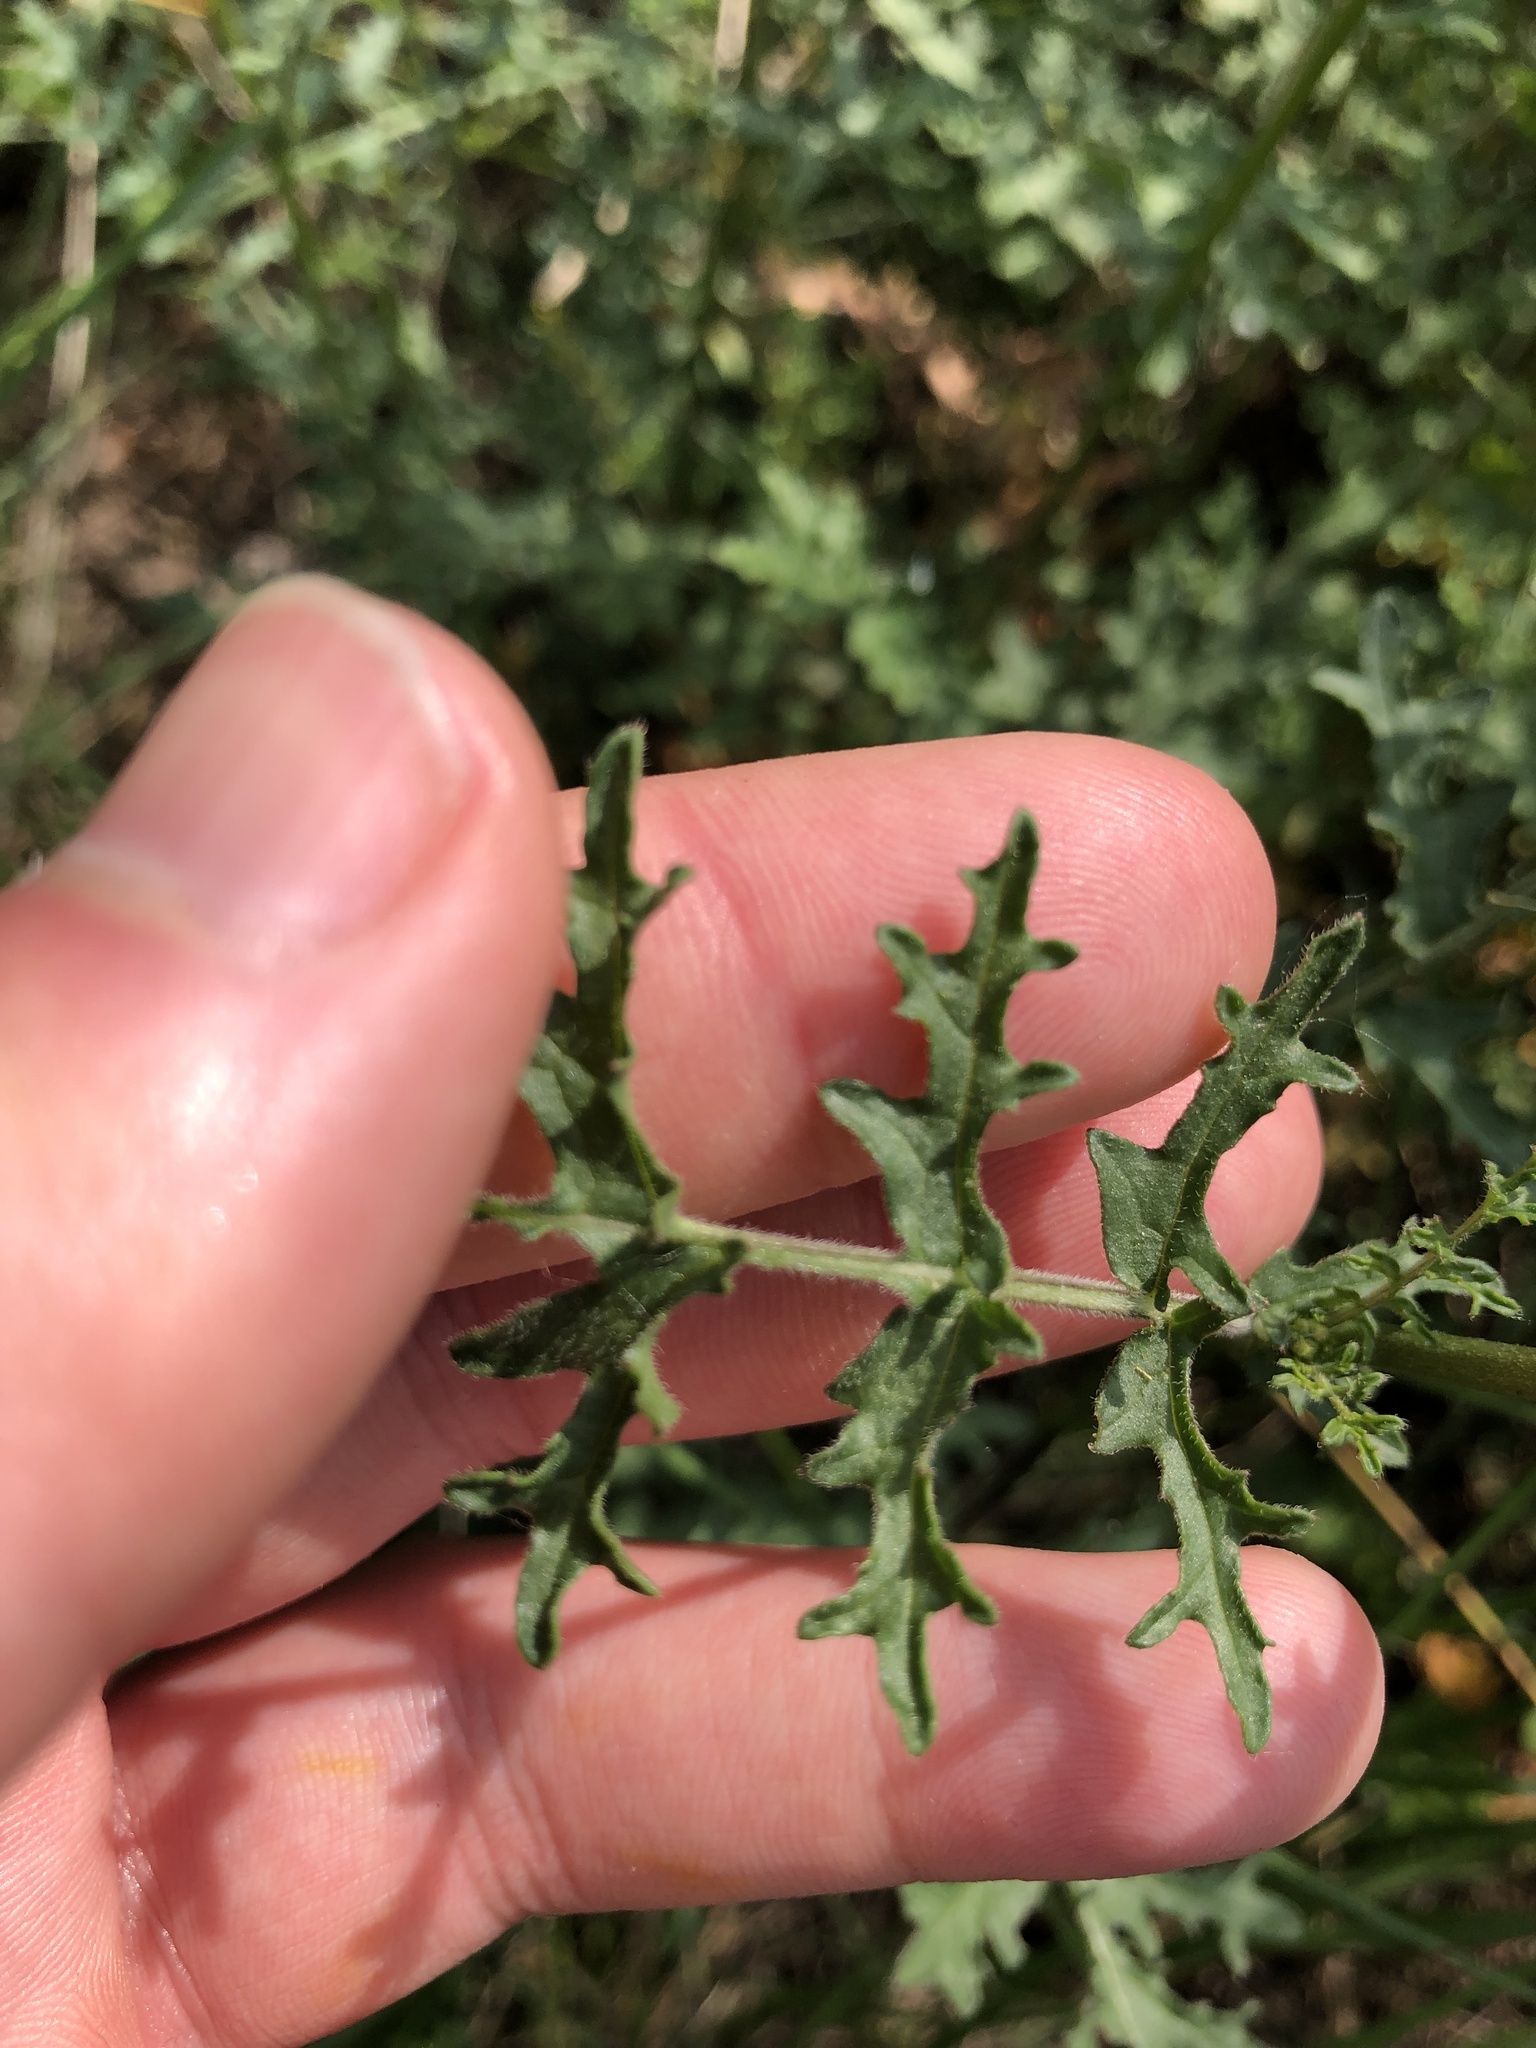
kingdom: Plantae
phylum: Tracheophyta
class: Magnoliopsida
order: Brassicales
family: Brassicaceae
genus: Erucastrum
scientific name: Erucastrum nasturtiifolium
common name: Watercress-leaf rocket
